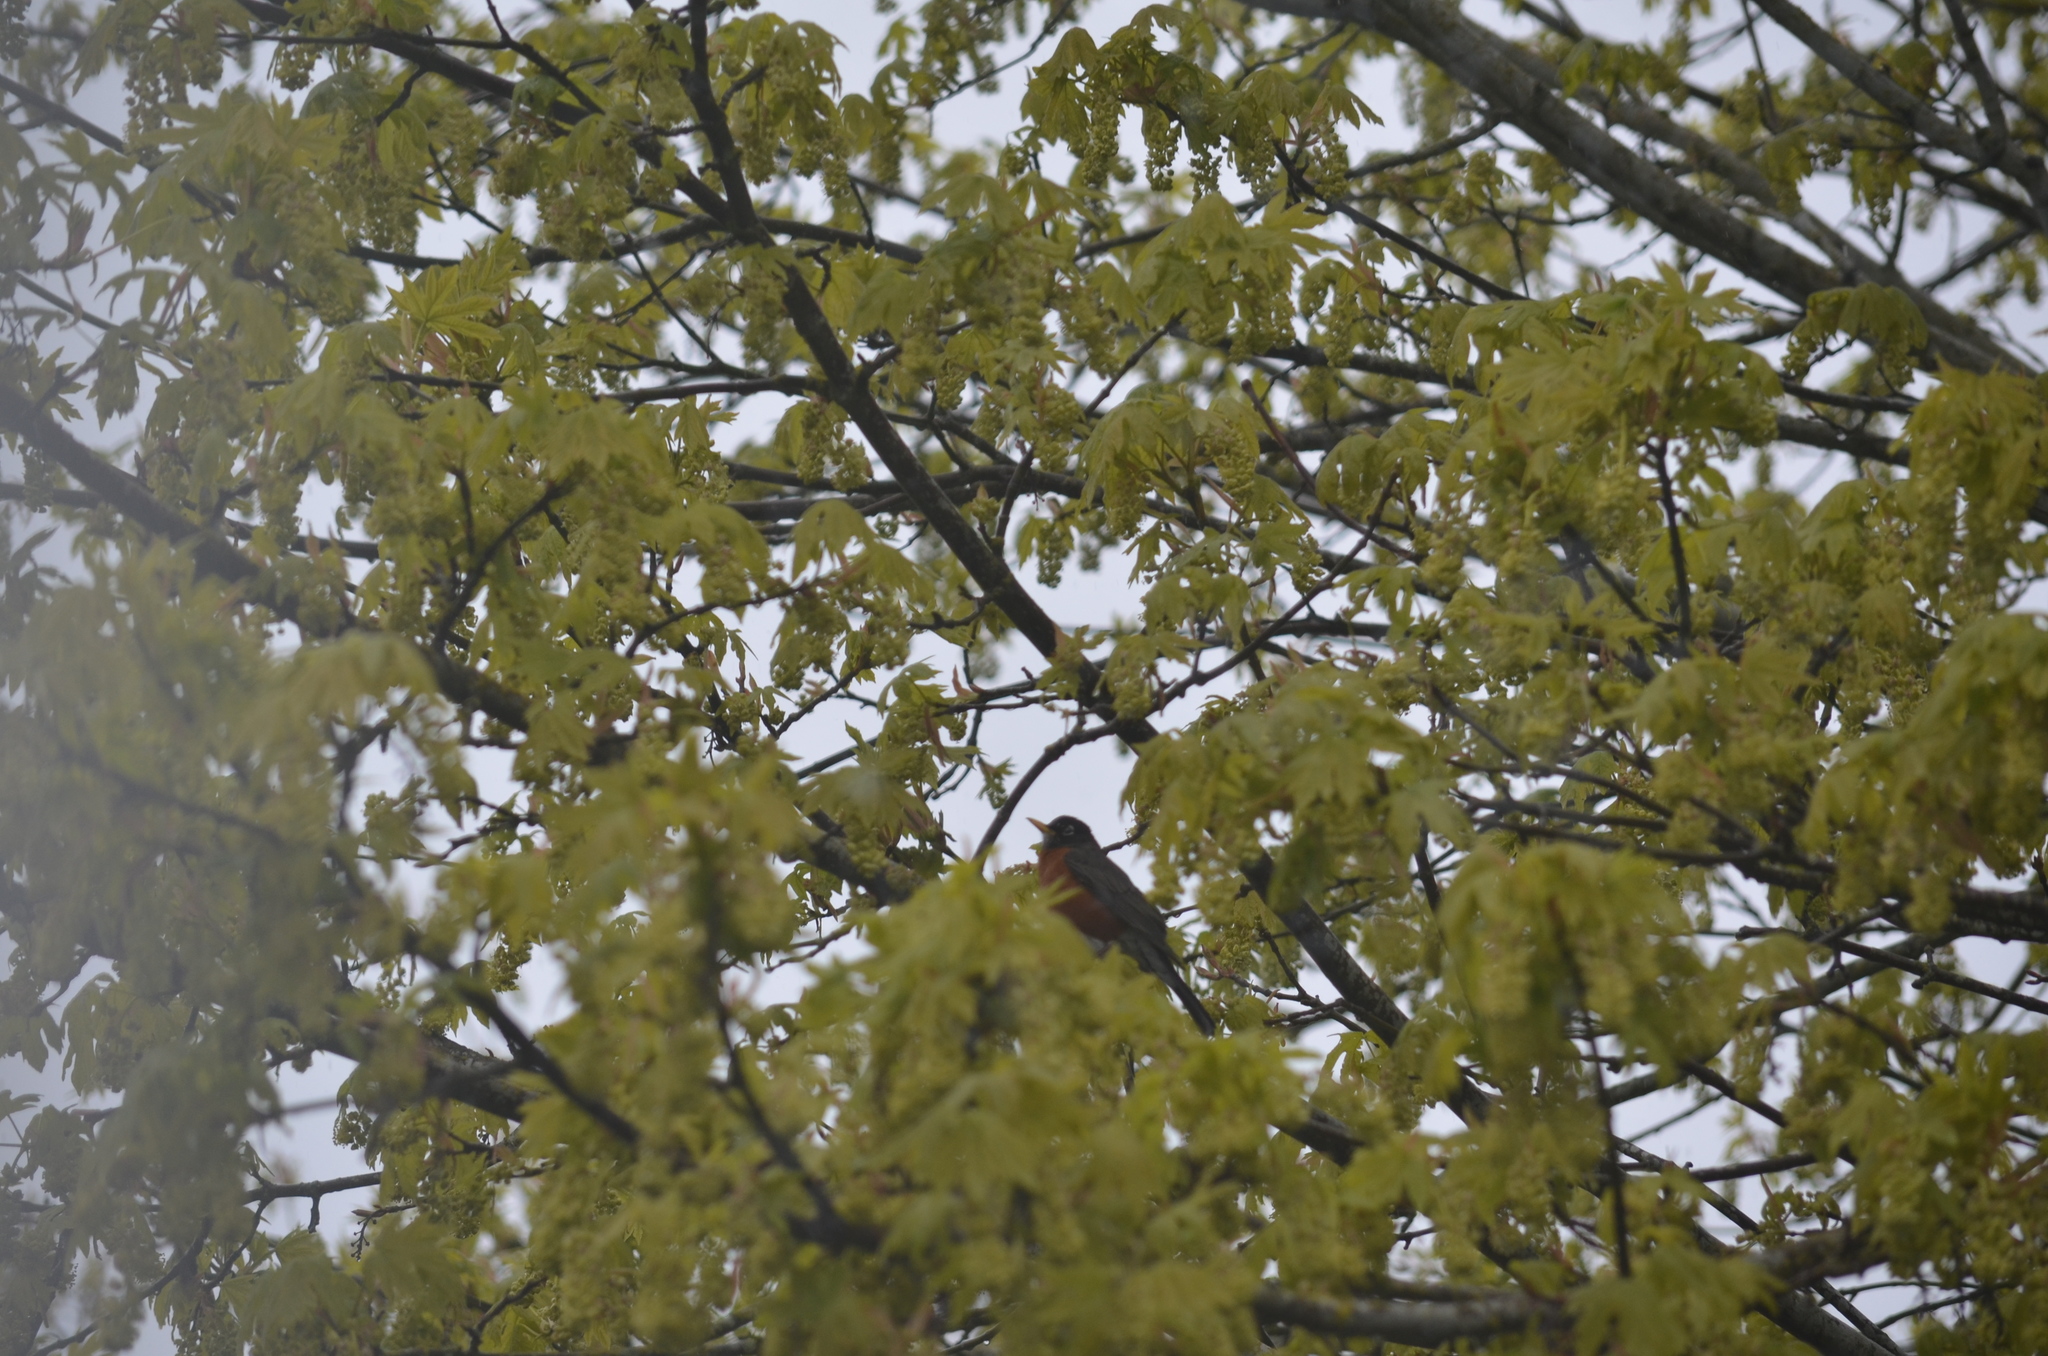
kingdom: Animalia
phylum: Chordata
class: Aves
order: Passeriformes
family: Turdidae
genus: Turdus
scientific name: Turdus migratorius
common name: American robin
